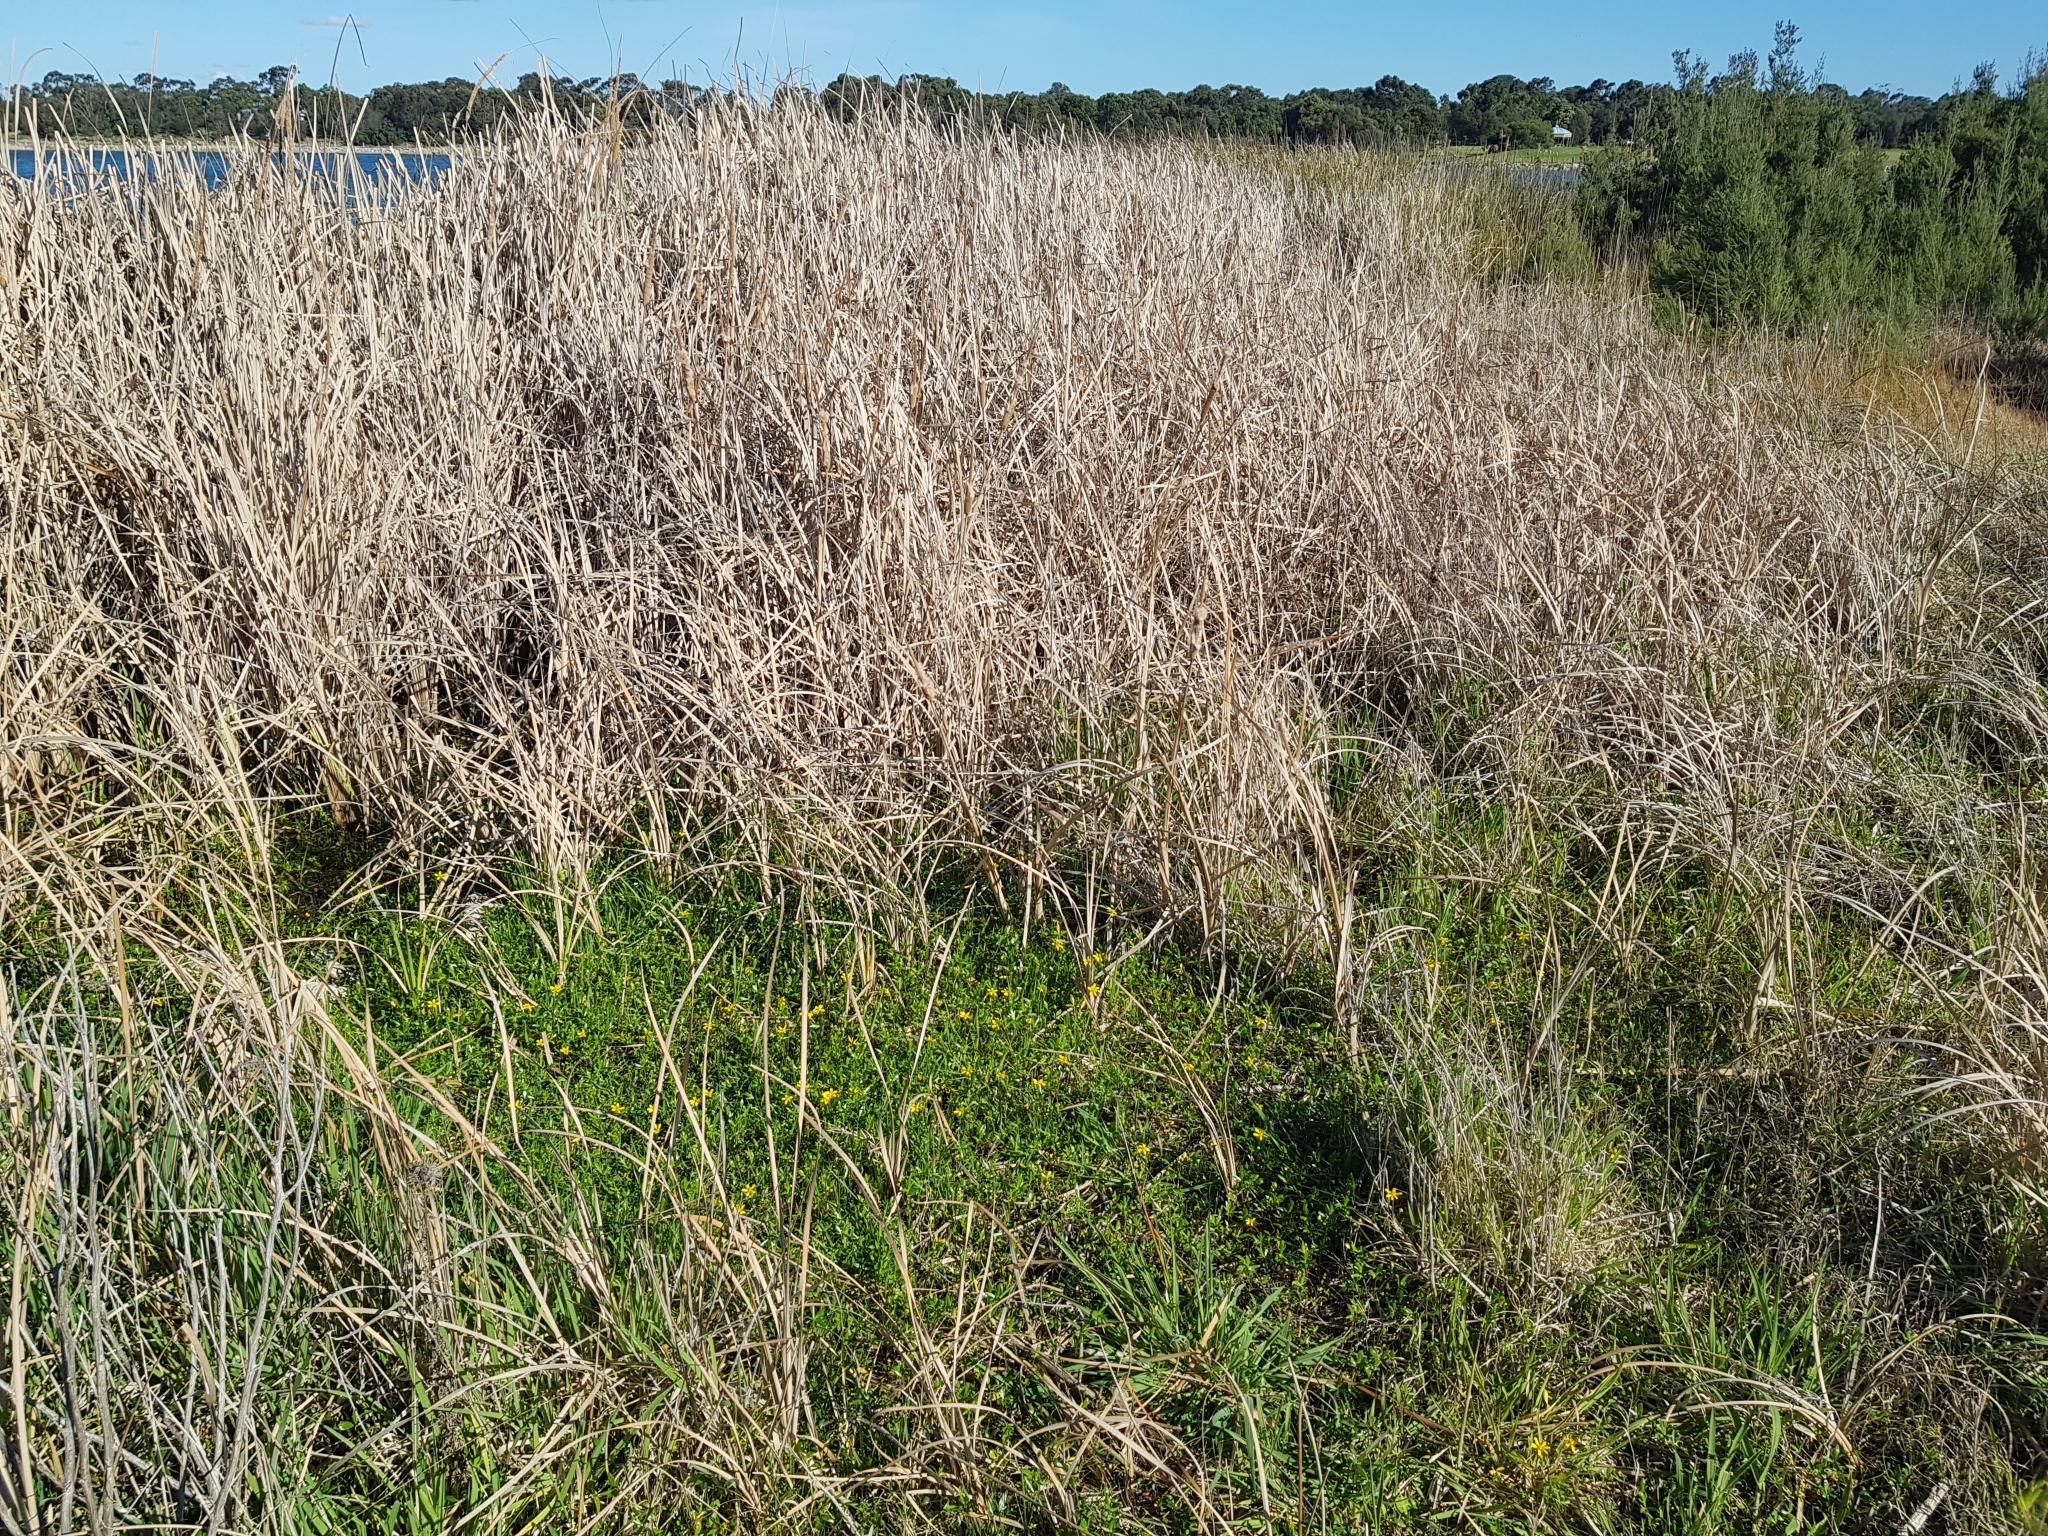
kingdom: Plantae
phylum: Tracheophyta
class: Magnoliopsida
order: Ranunculales
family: Ranunculaceae
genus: Ranunculus
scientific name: Ranunculus amphitrichus
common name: Small river buttercup
